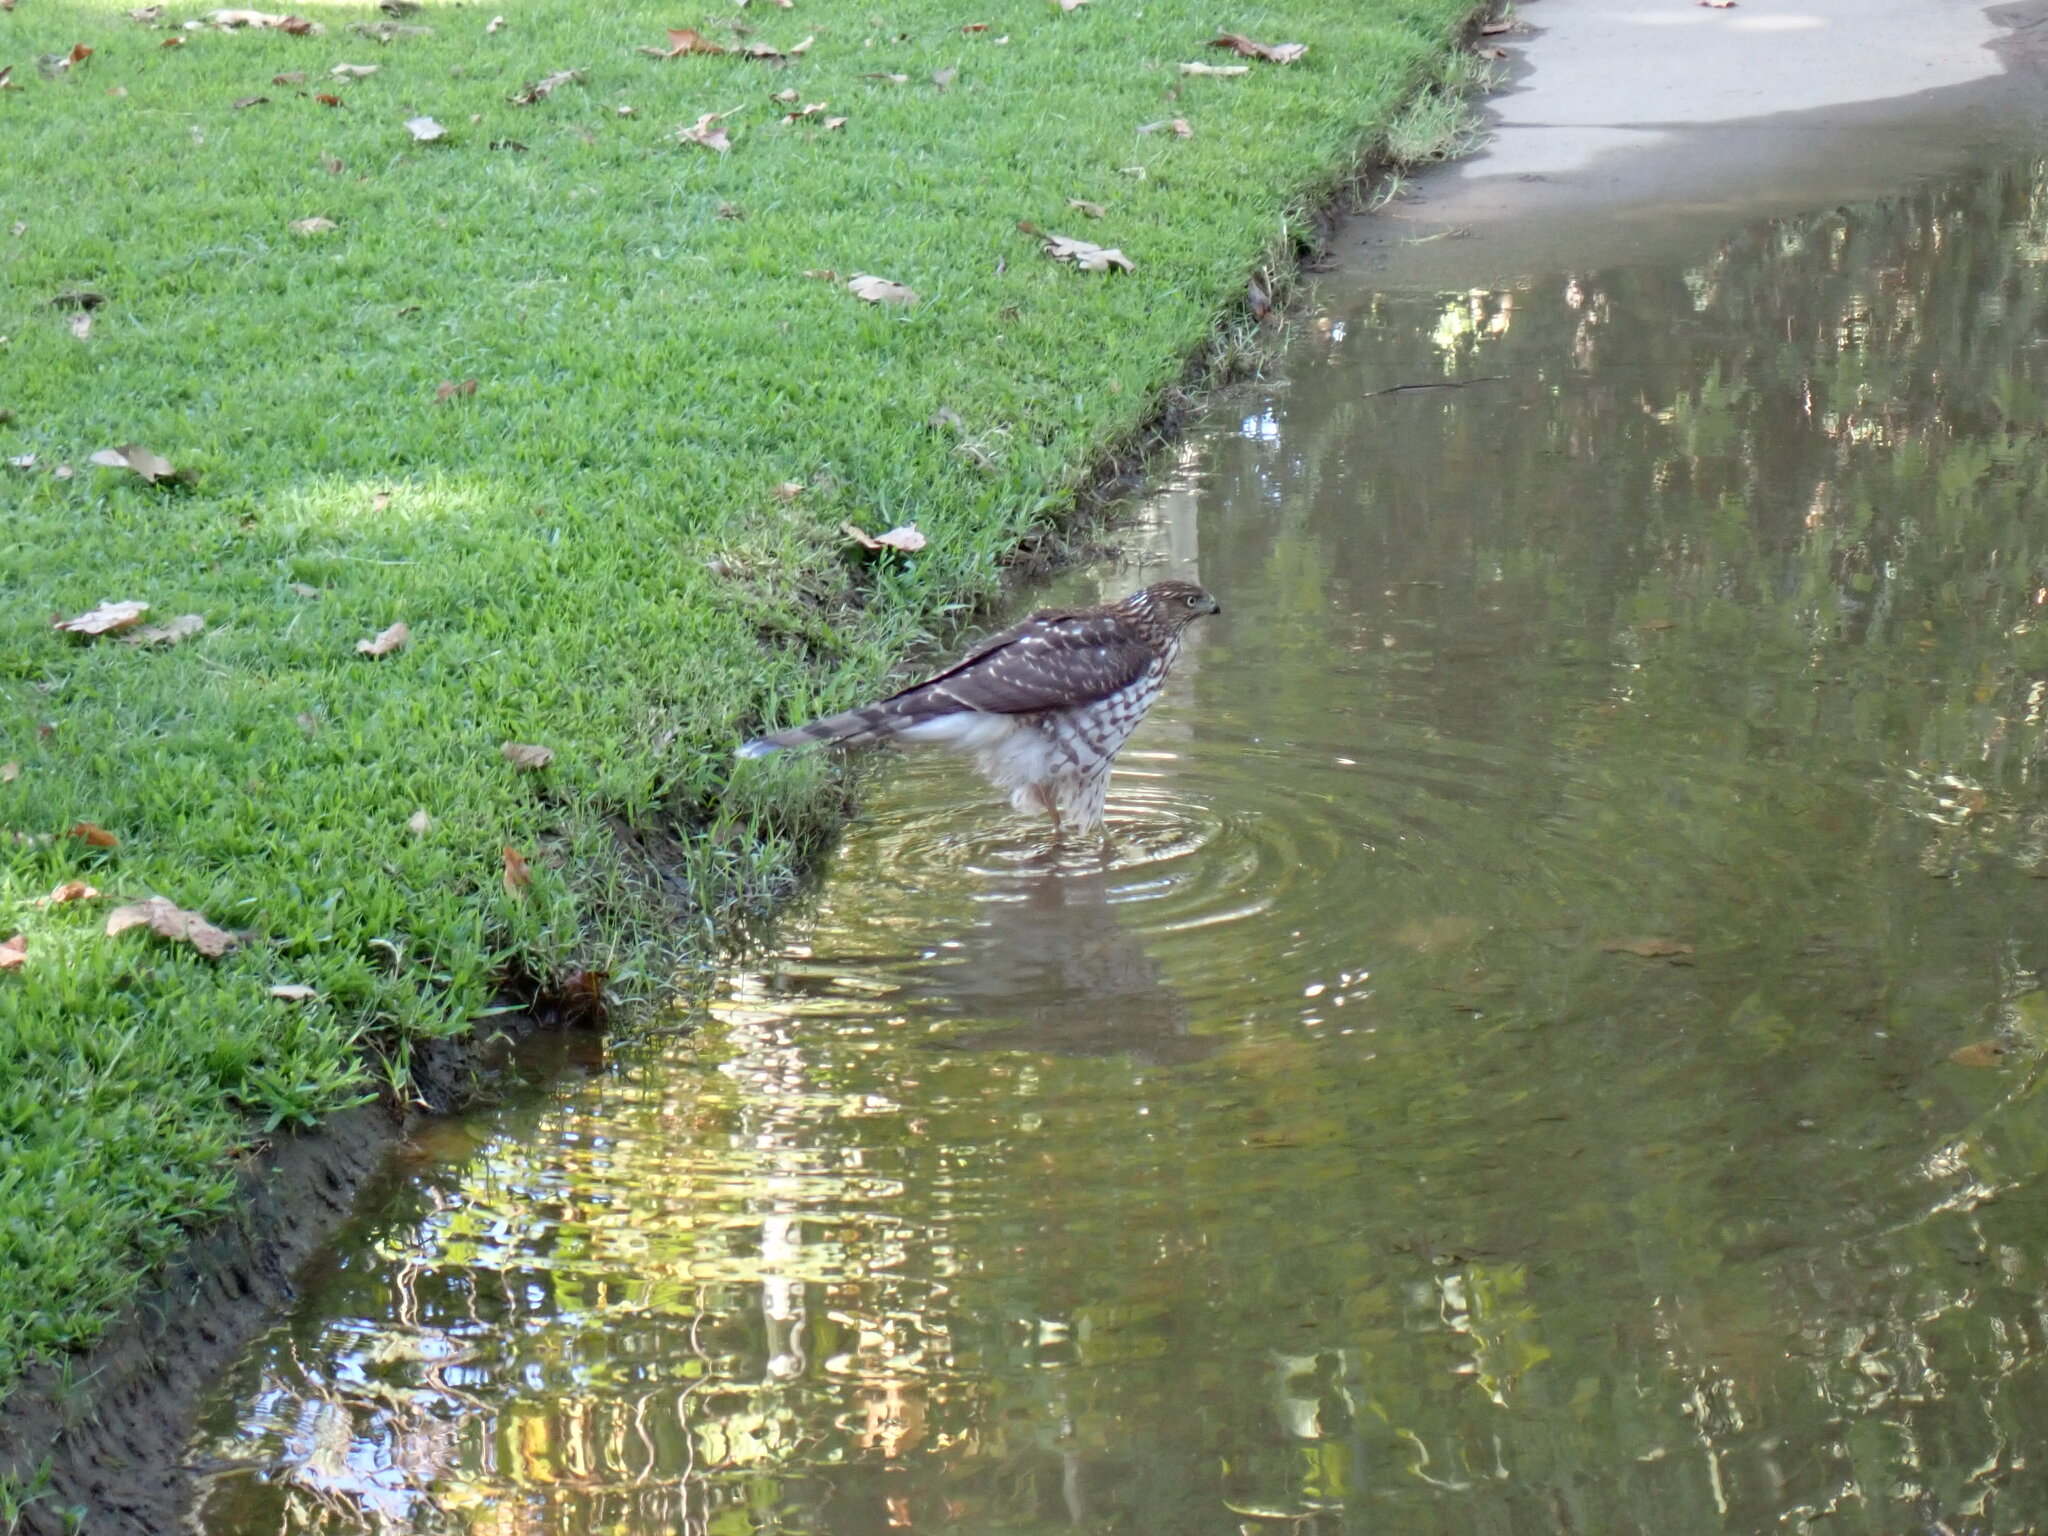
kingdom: Animalia
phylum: Chordata
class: Aves
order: Accipitriformes
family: Accipitridae
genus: Accipiter
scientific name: Accipiter cooperii
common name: Cooper's hawk
